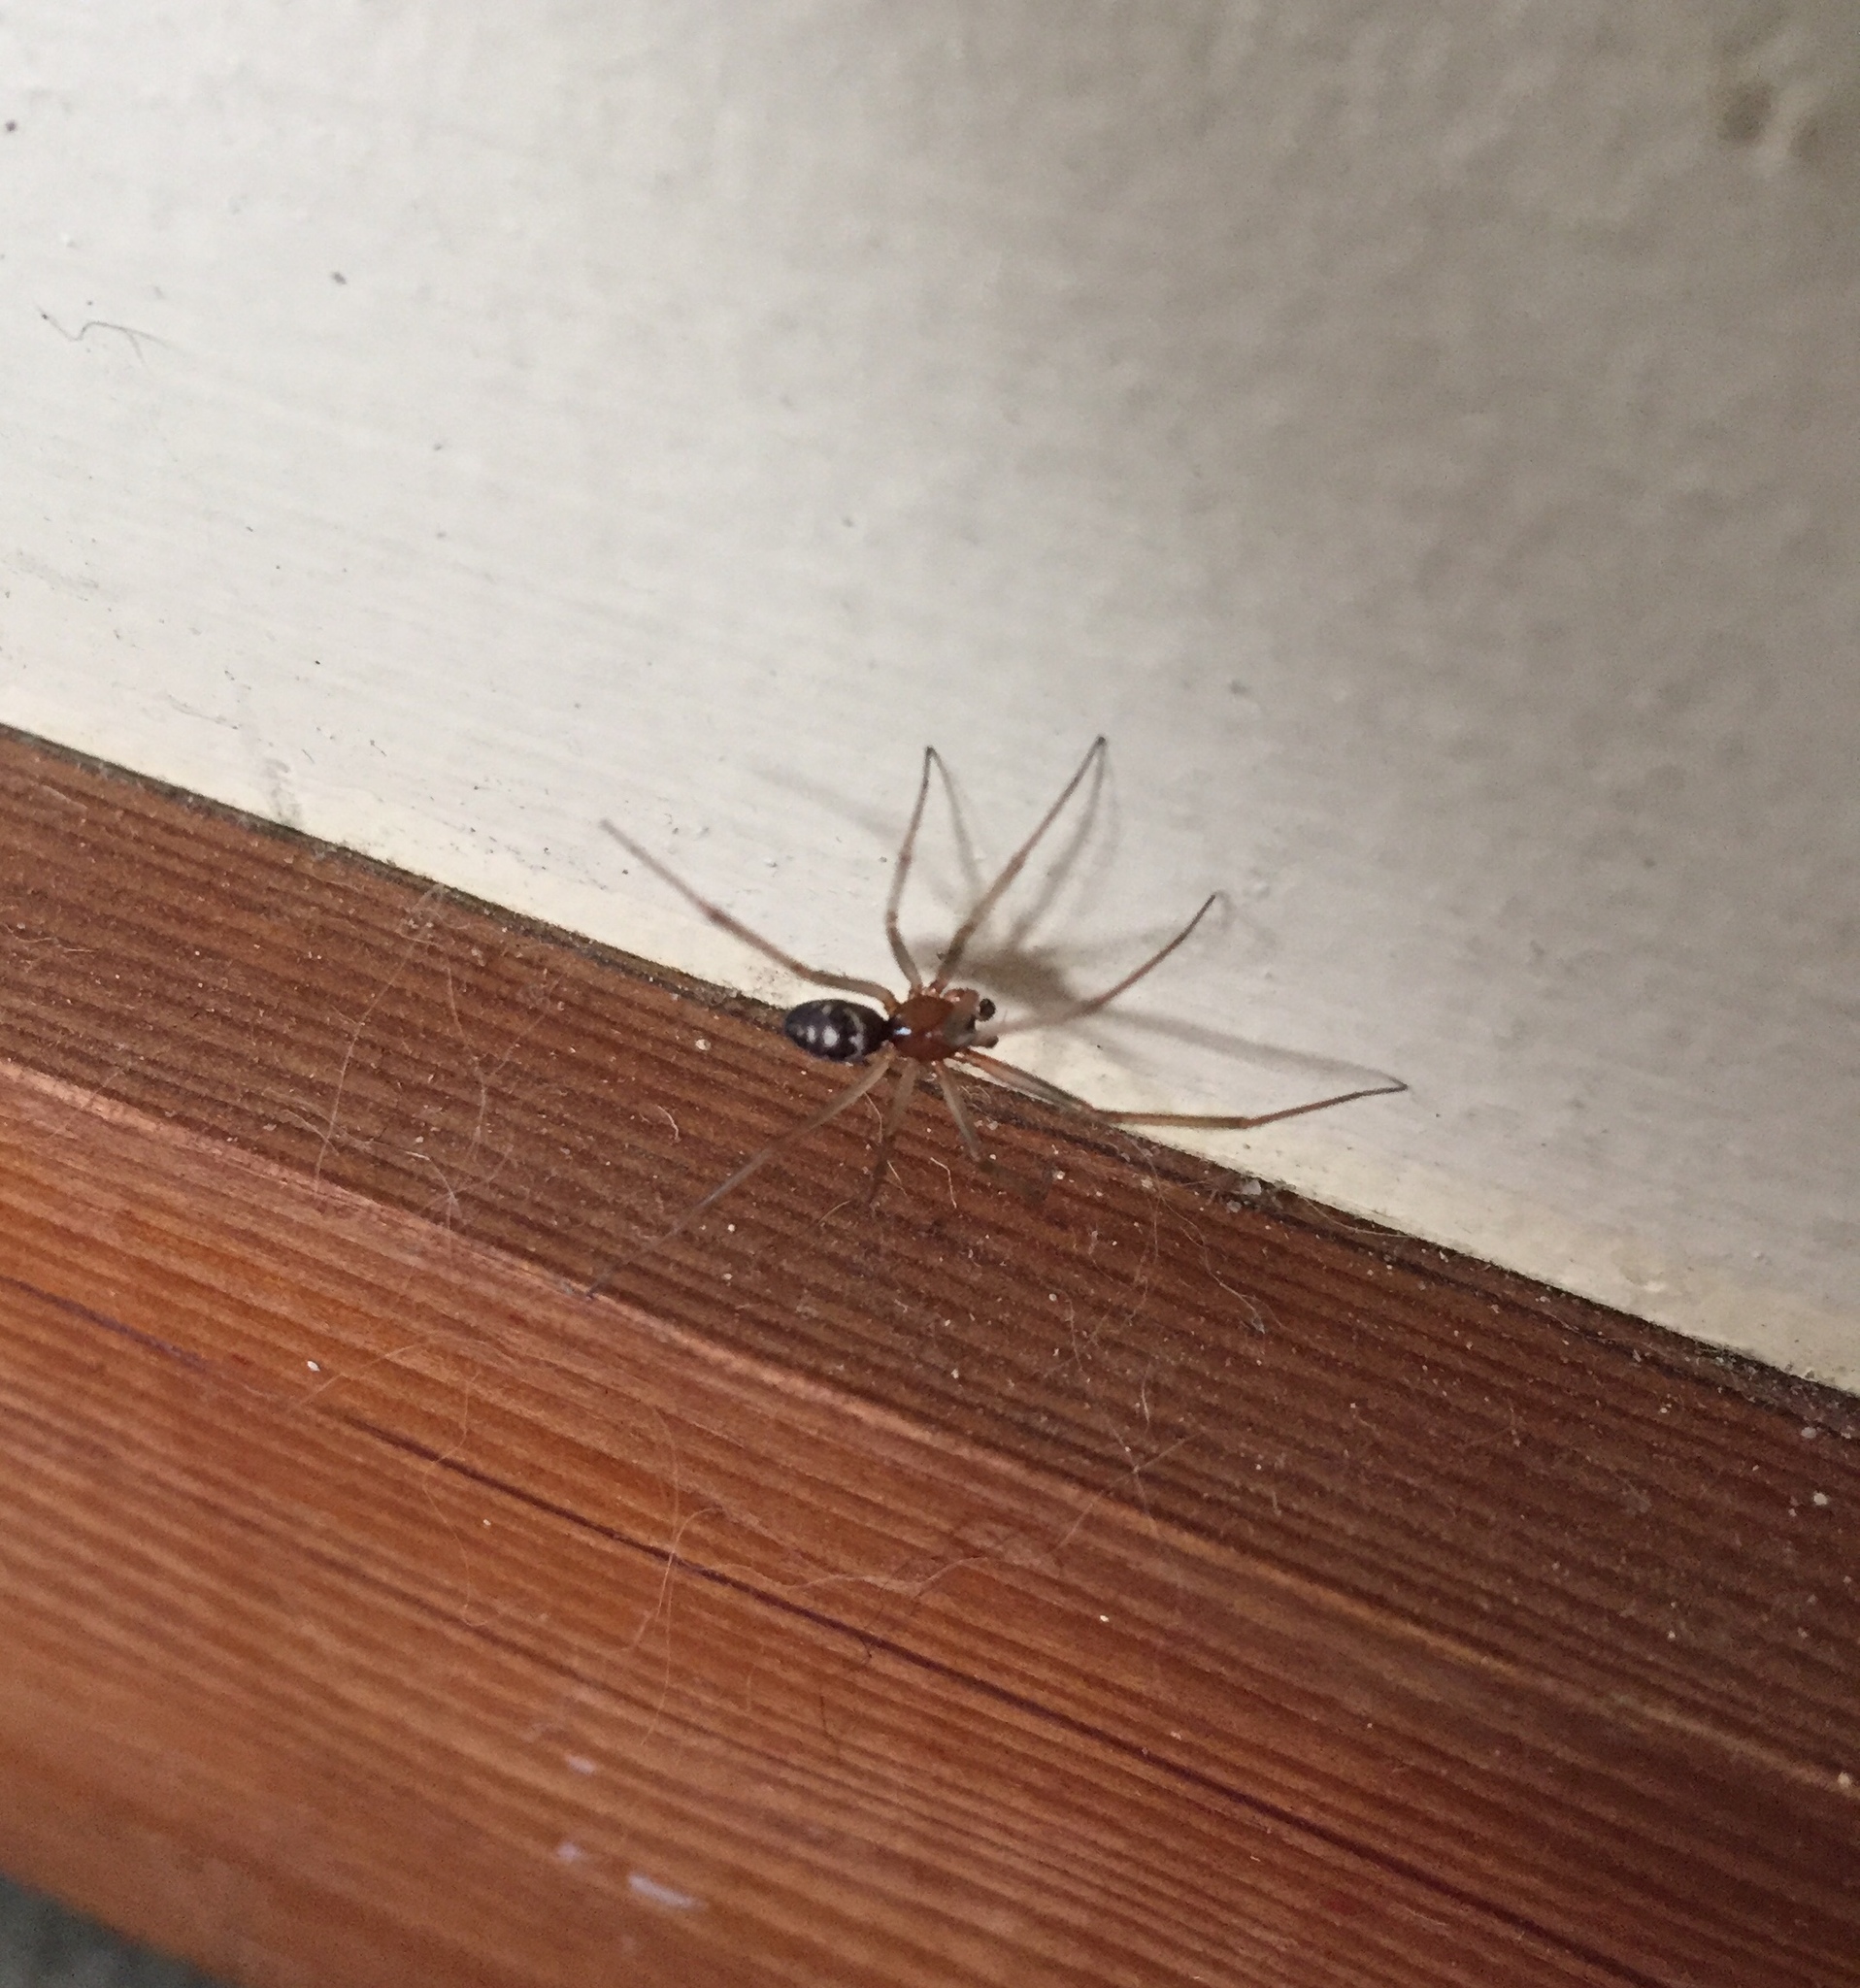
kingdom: Animalia
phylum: Arthropoda
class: Arachnida
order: Araneae
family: Theridiidae
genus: Steatoda
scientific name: Steatoda grossa
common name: False black widow
